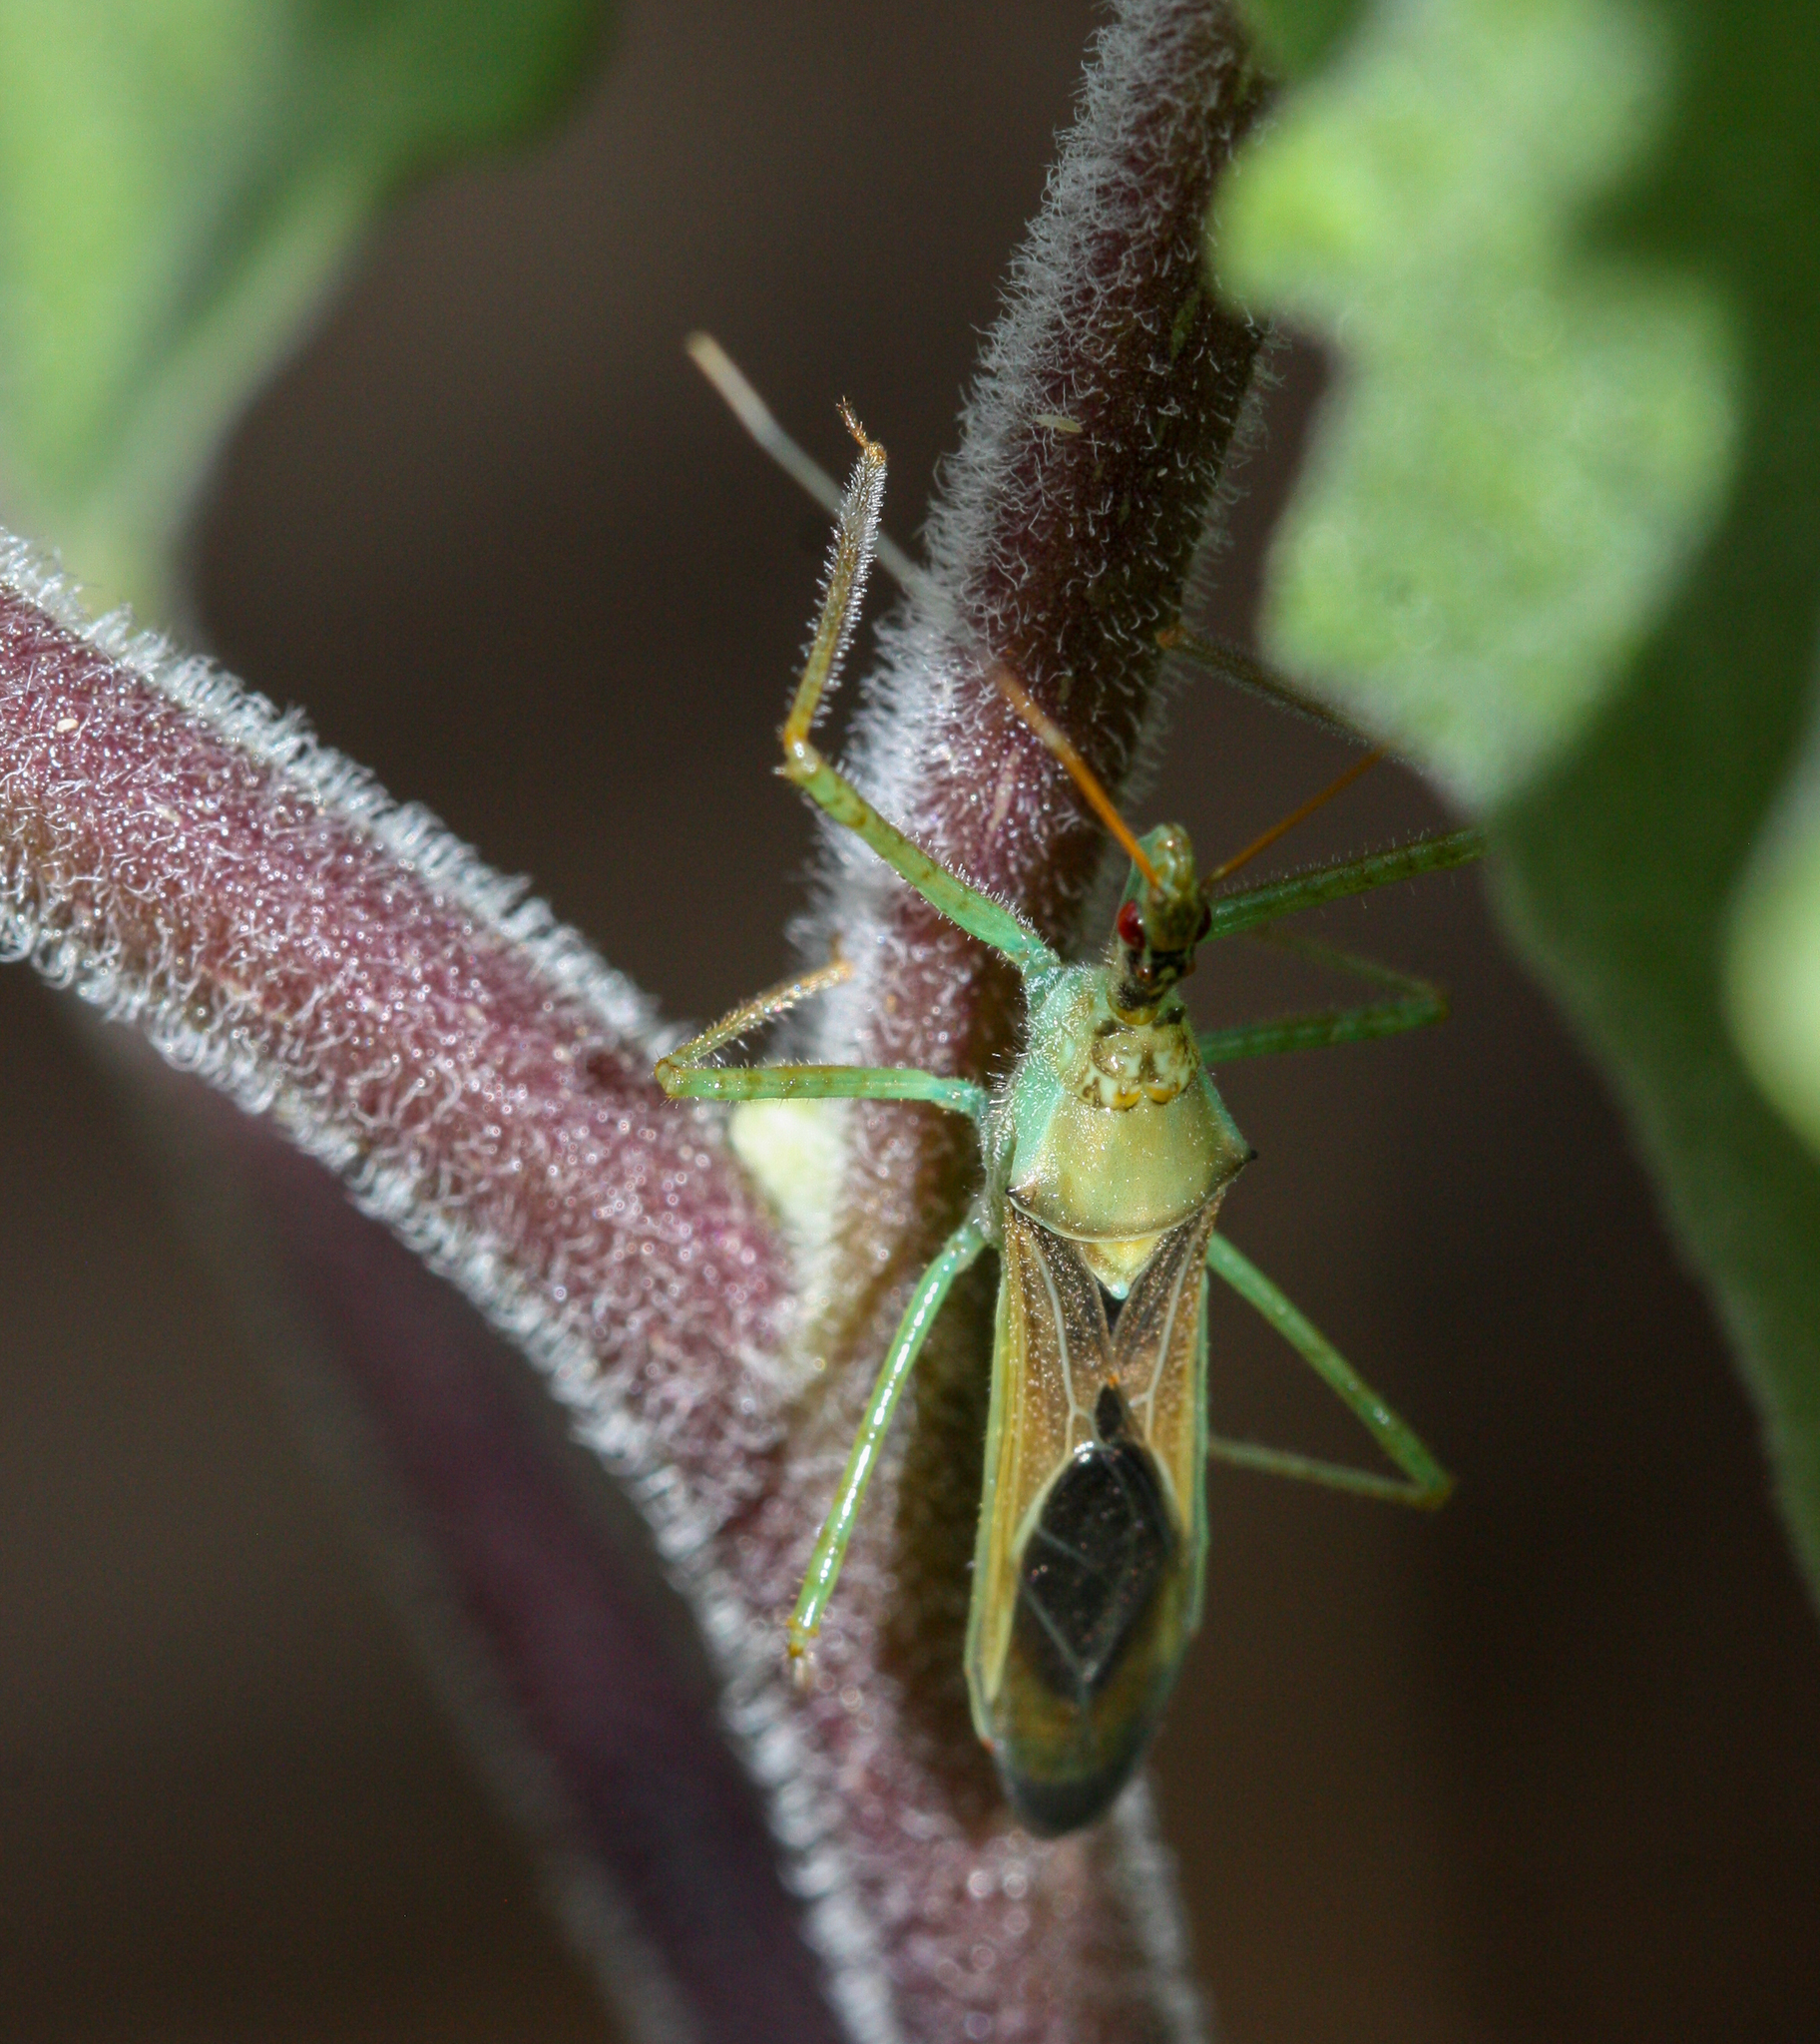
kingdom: Animalia
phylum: Arthropoda
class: Insecta
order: Hemiptera
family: Reduviidae
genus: Zelus
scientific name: Zelus renardii
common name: Assassin bug
